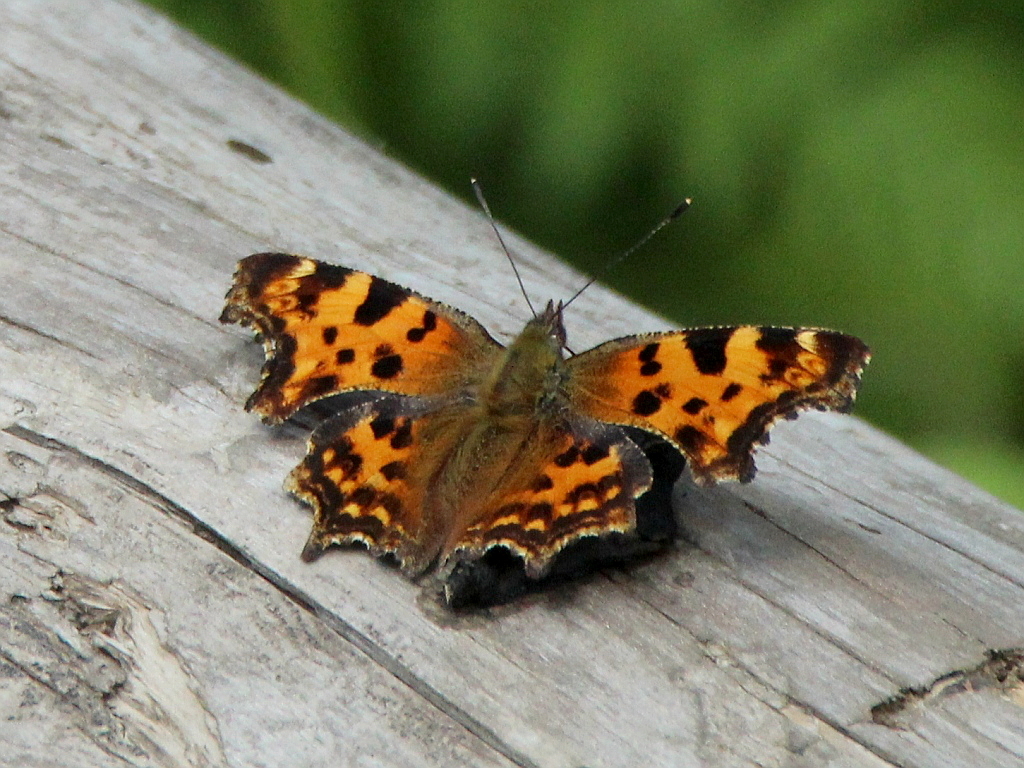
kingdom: Animalia
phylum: Arthropoda
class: Insecta
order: Lepidoptera
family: Nymphalidae
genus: Polygonia
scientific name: Polygonia c-album
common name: Comma
